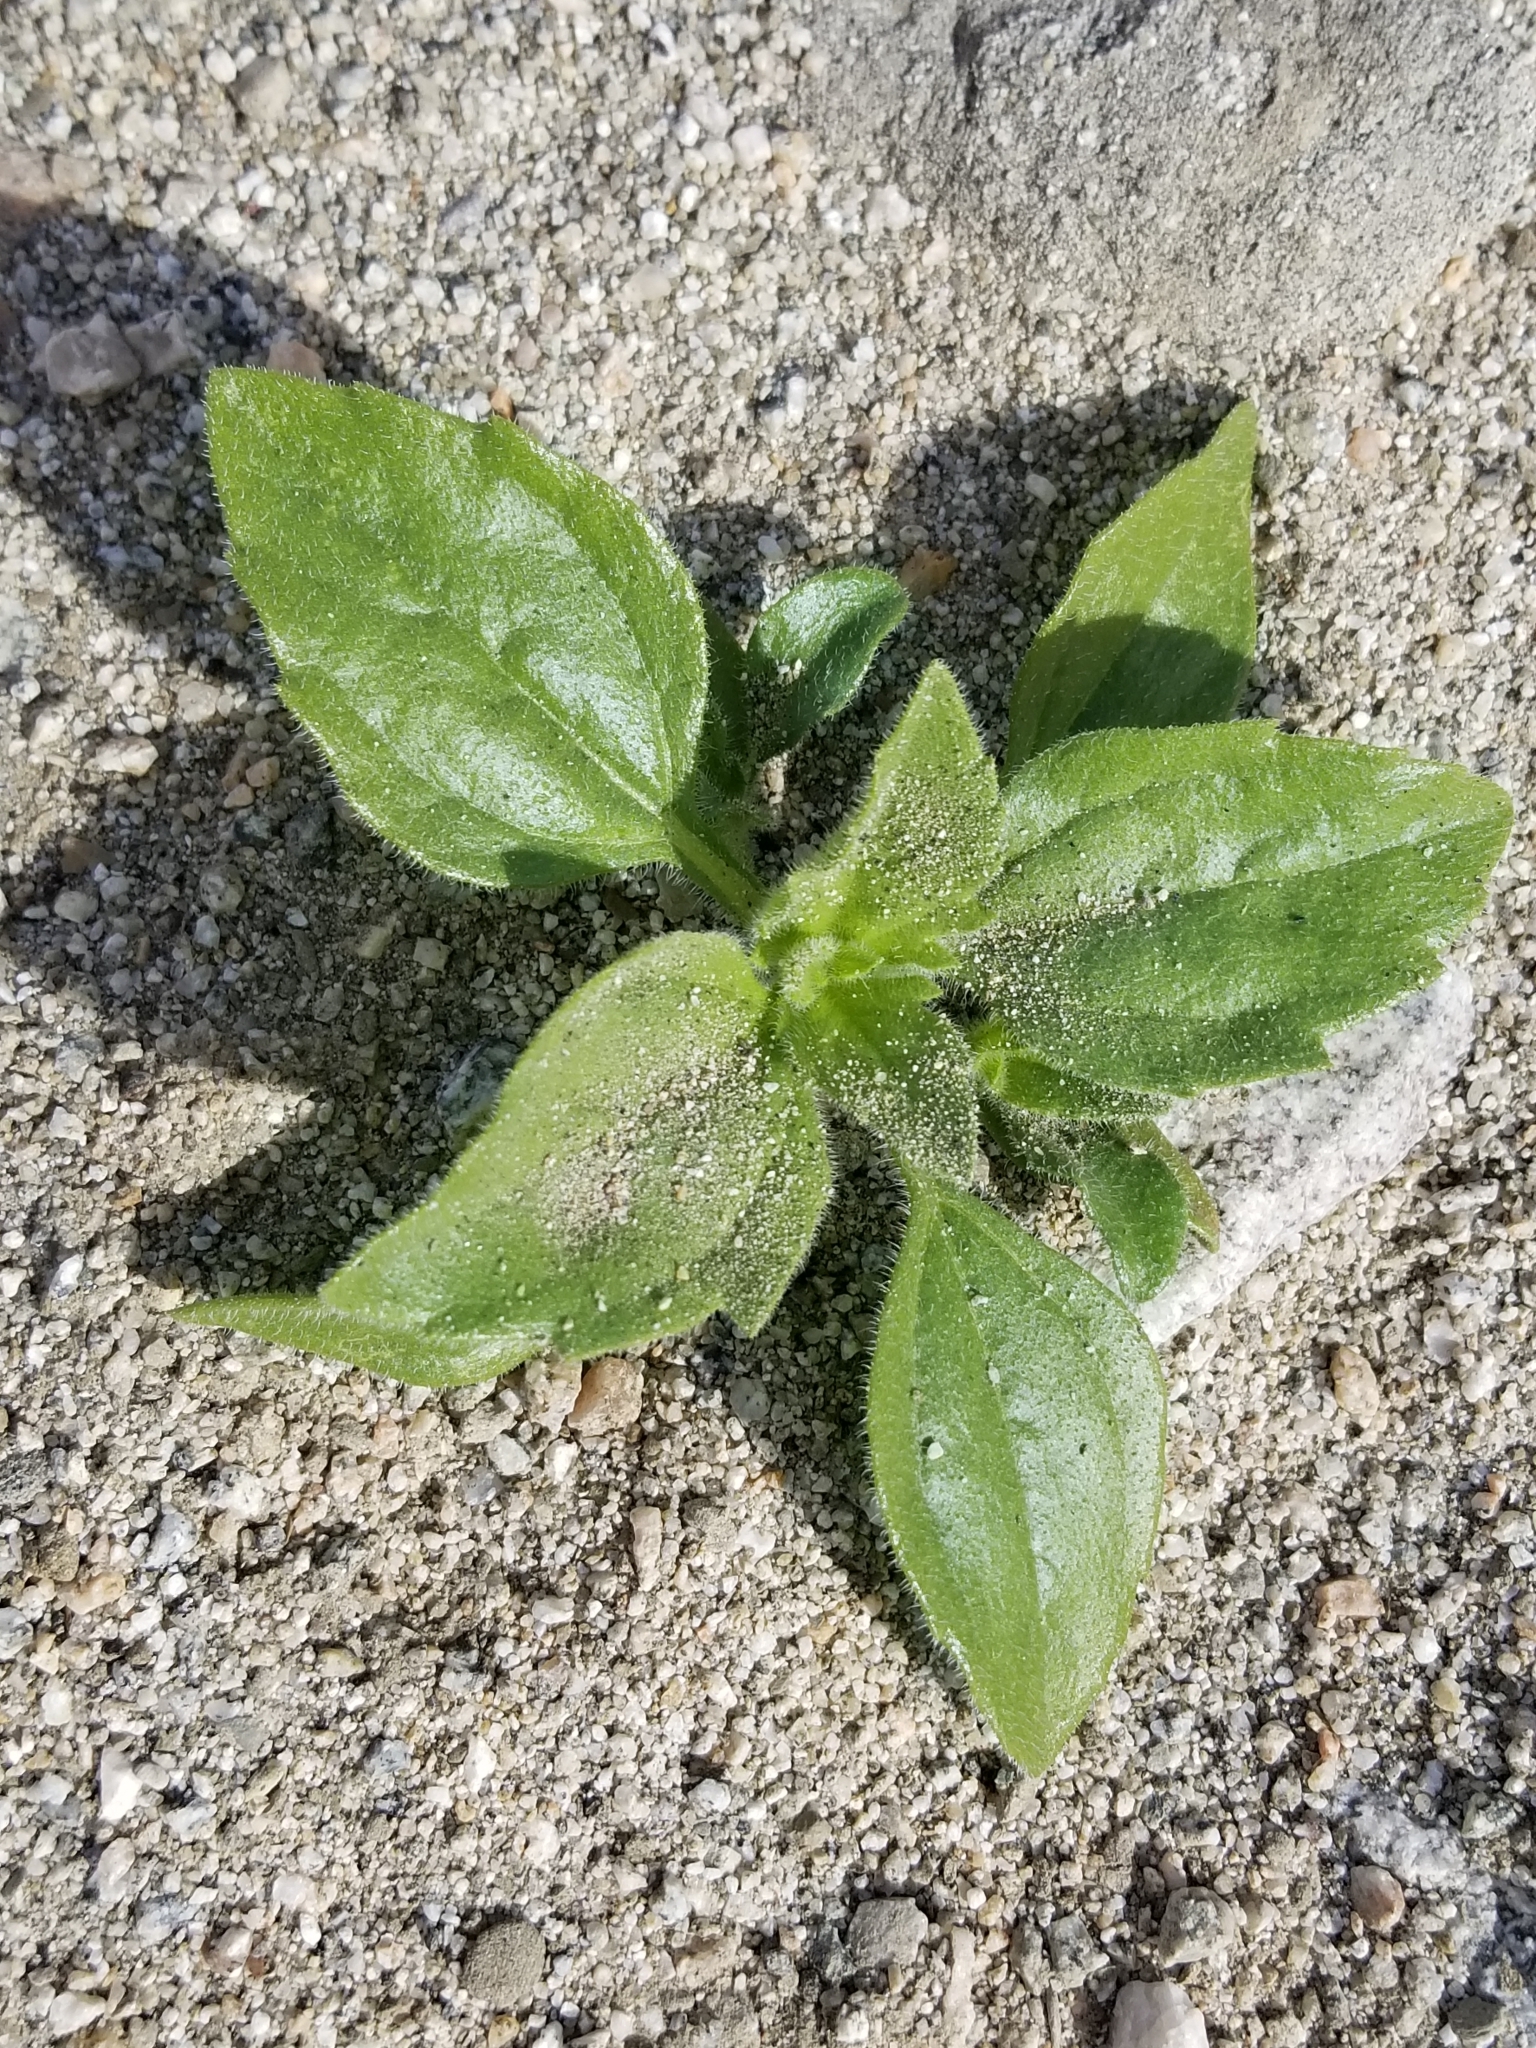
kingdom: Plantae
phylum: Tracheophyta
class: Magnoliopsida
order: Asterales
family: Asteraceae
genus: Geraea
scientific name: Geraea canescens
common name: Desert-gold
